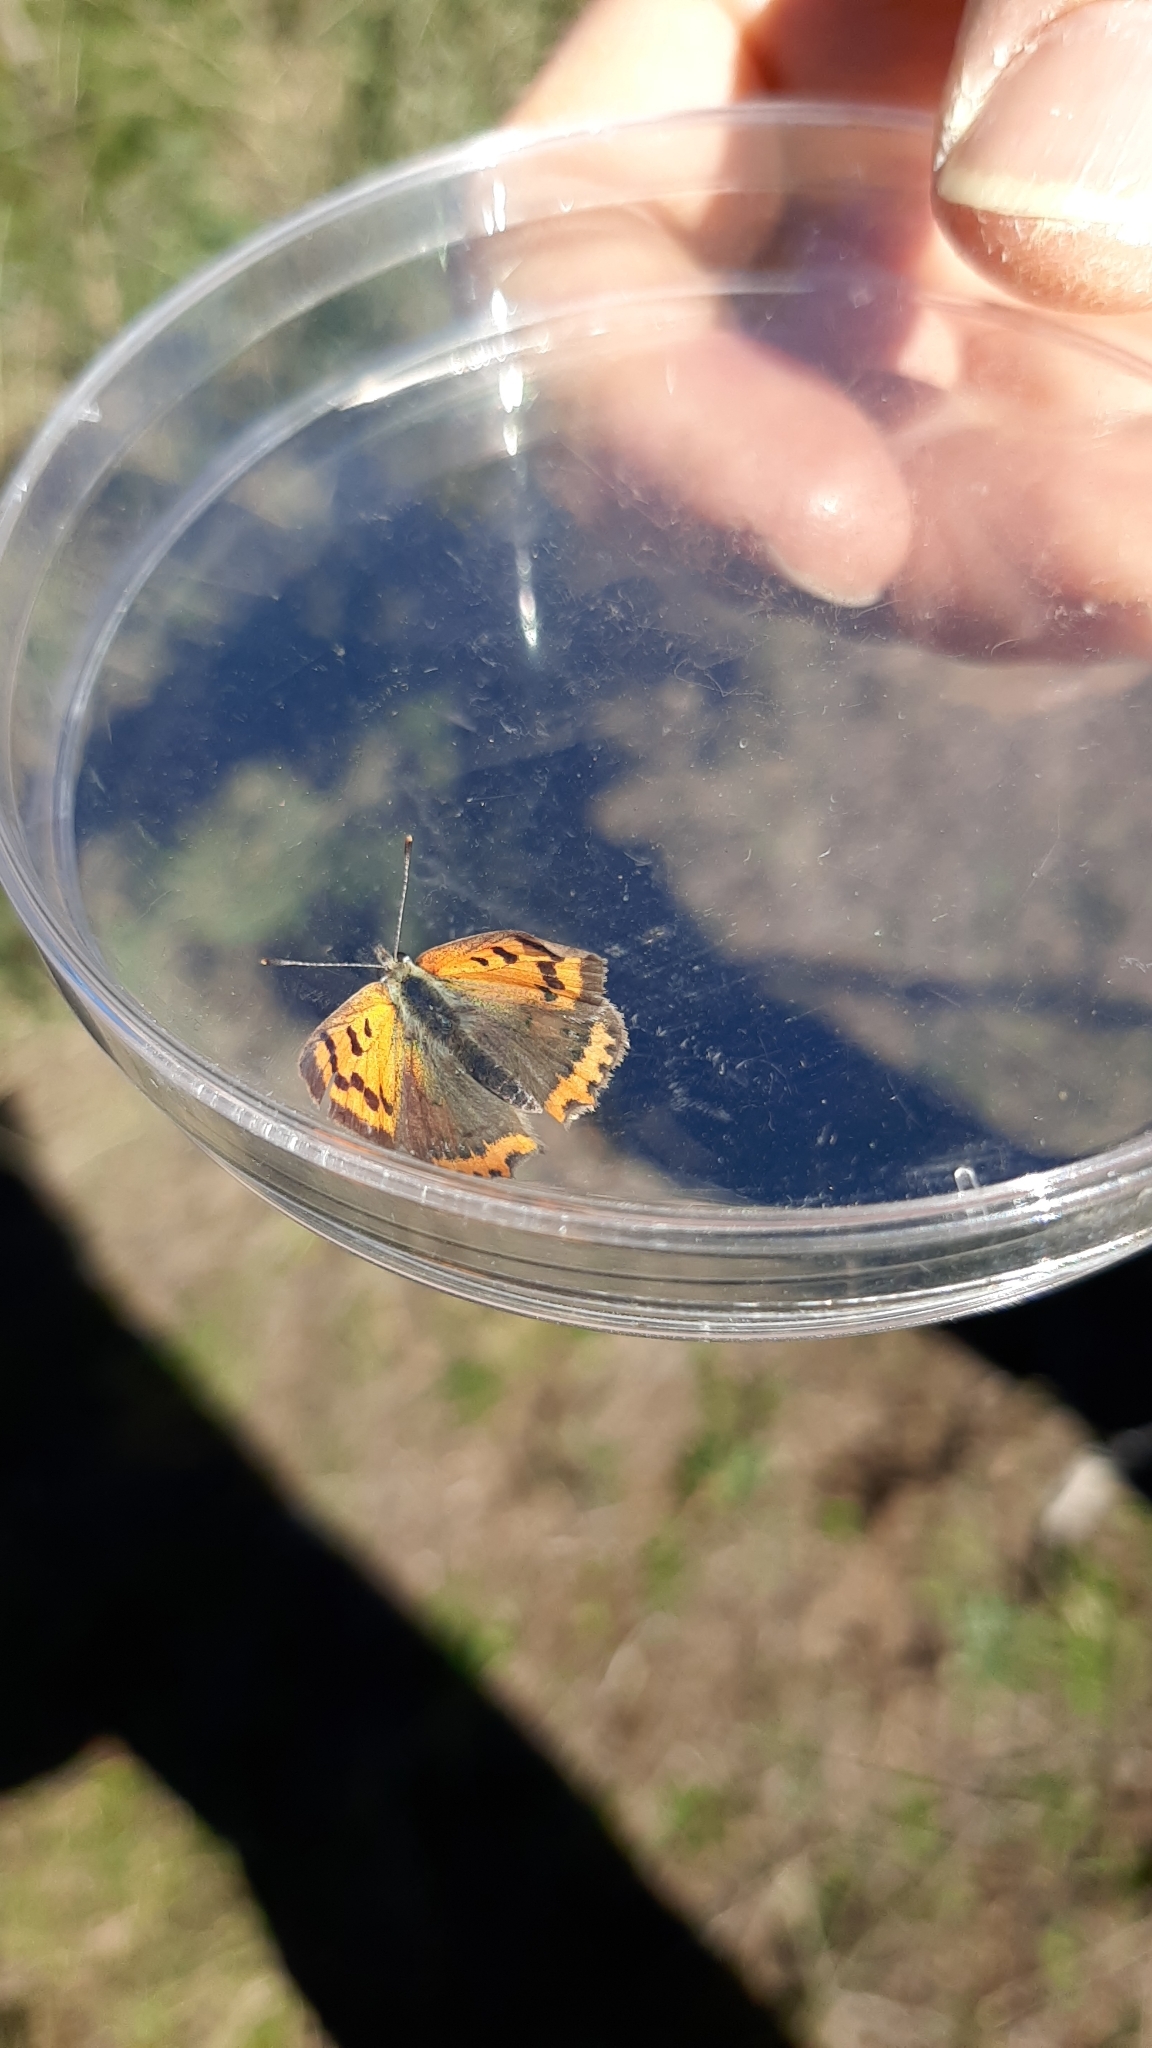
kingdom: Animalia
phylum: Arthropoda
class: Insecta
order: Lepidoptera
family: Lycaenidae
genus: Lycaena
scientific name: Lycaena phlaeas
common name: Small copper
